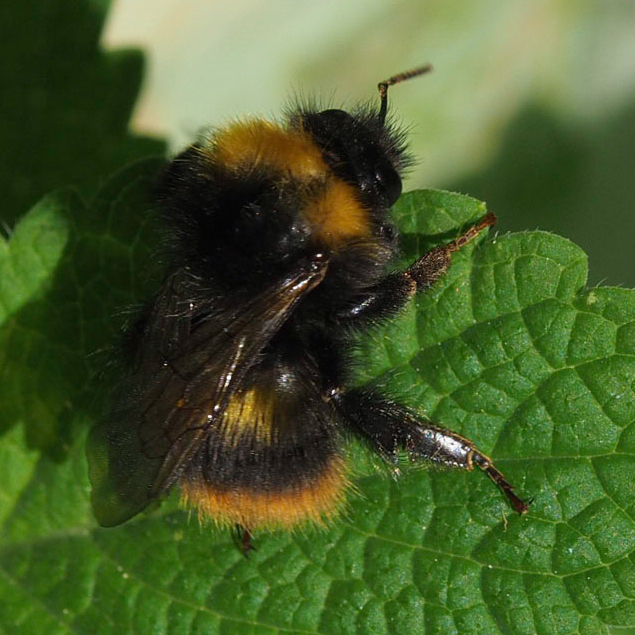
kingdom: Animalia
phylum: Arthropoda
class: Insecta
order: Hymenoptera
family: Apidae
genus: Bombus
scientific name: Bombus pratorum
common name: Early humble-bee
